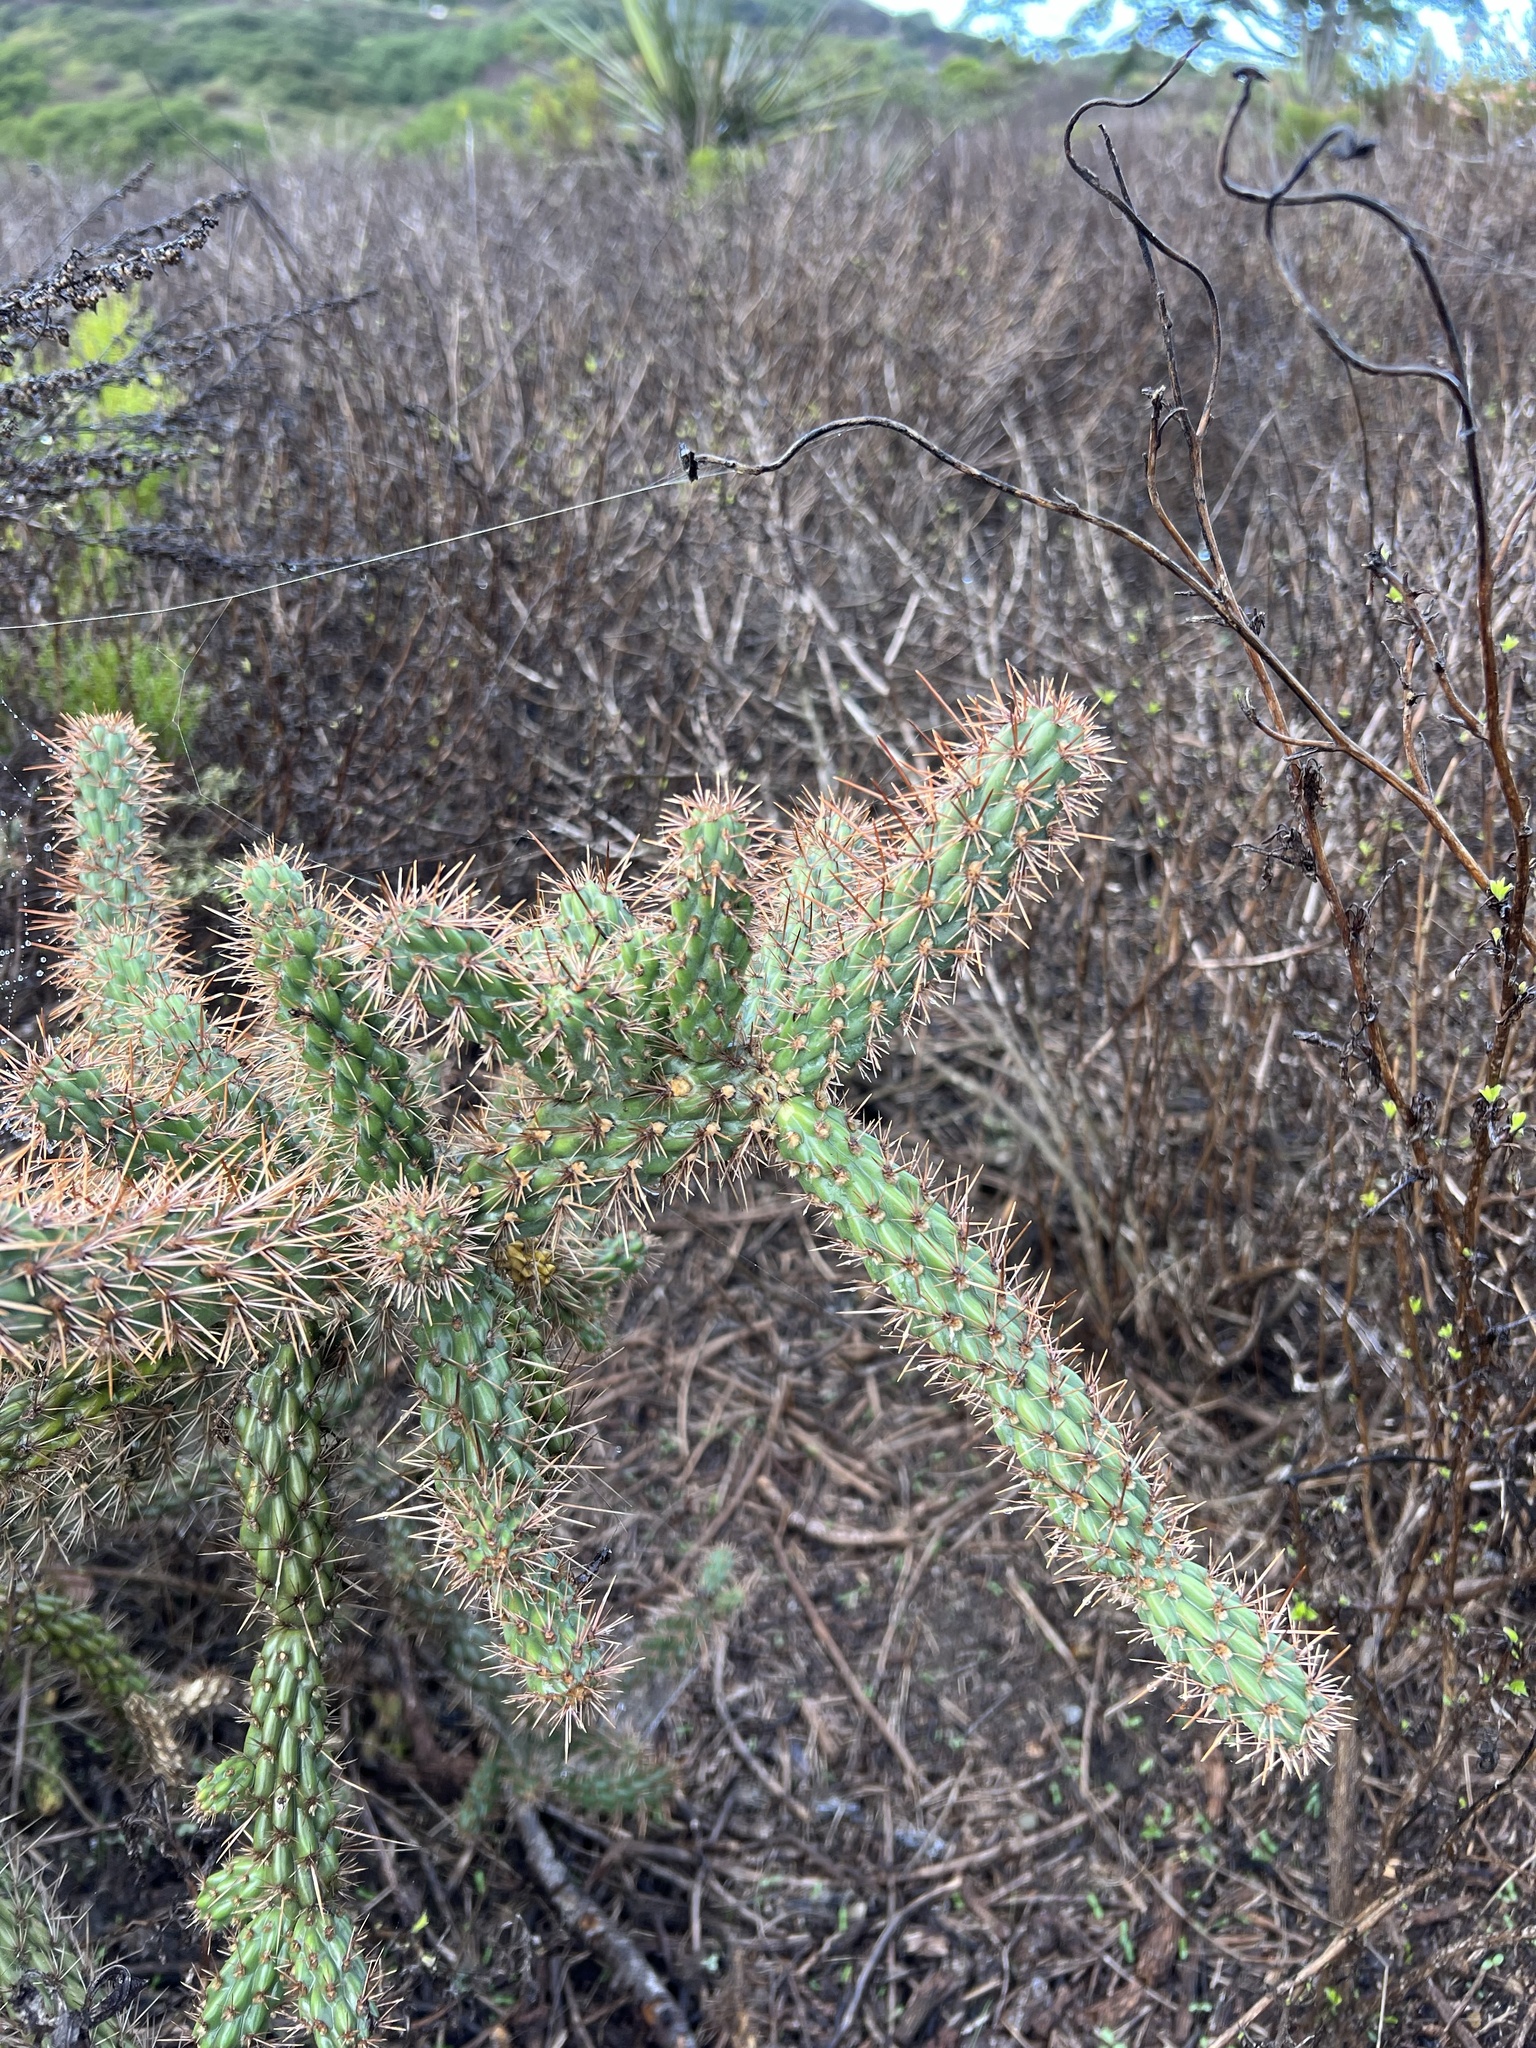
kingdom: Plantae
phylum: Tracheophyta
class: Magnoliopsida
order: Caryophyllales
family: Cactaceae
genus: Cylindropuntia
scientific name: Cylindropuntia prolifera
